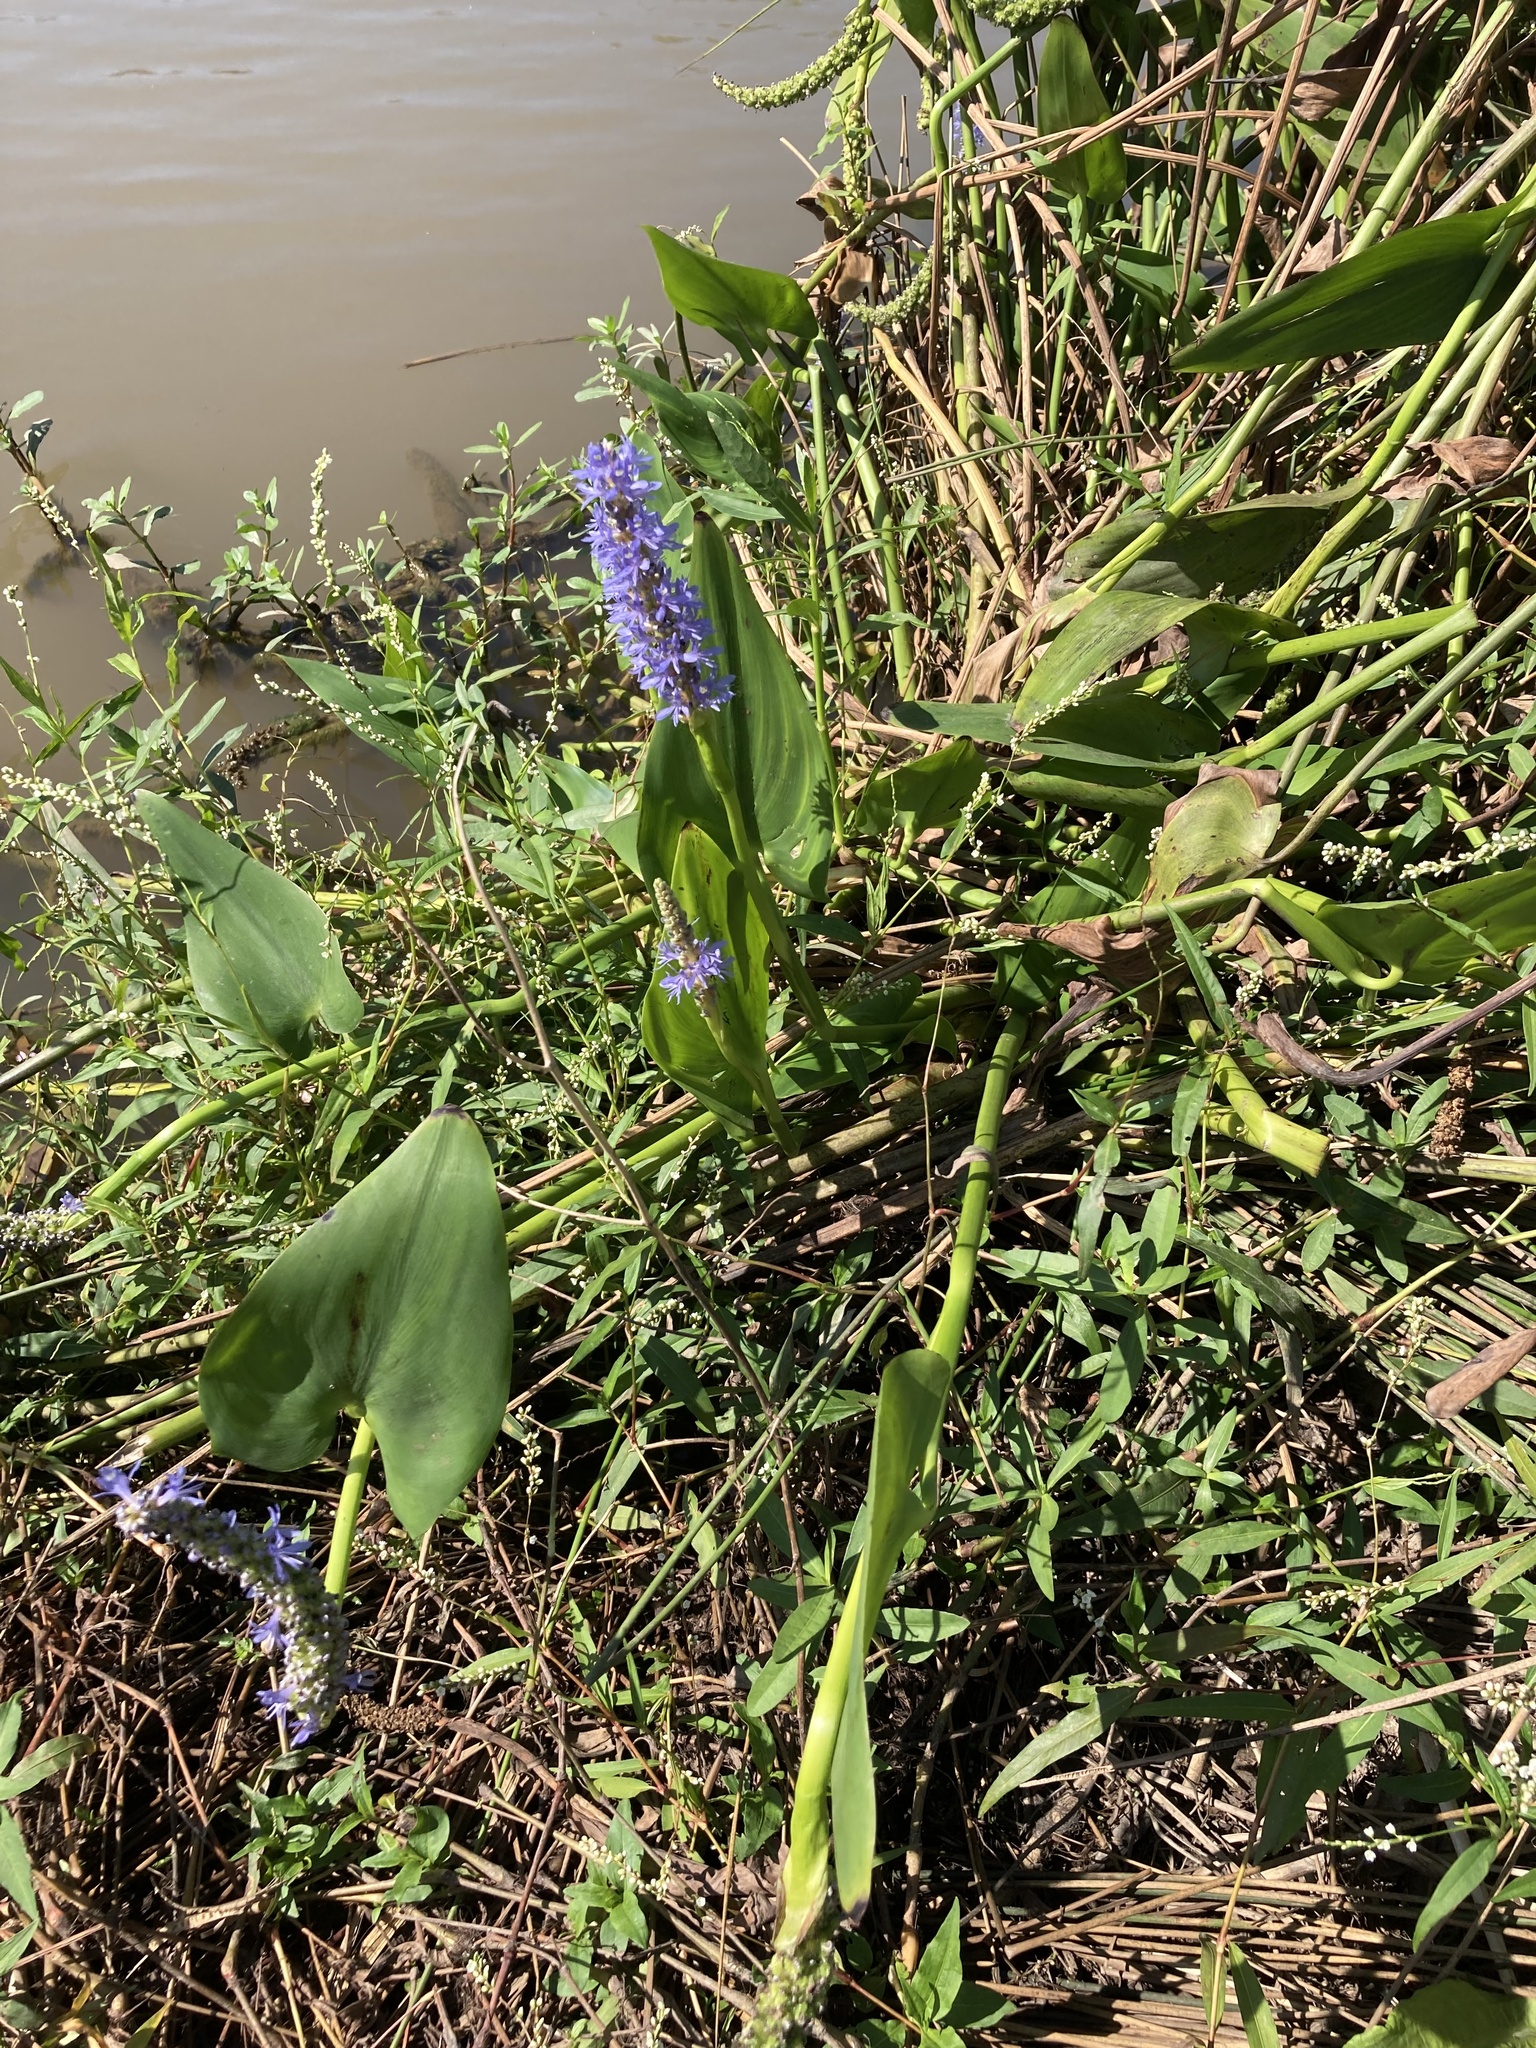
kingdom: Plantae
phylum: Tracheophyta
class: Liliopsida
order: Commelinales
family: Pontederiaceae
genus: Pontederia
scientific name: Pontederia cordata
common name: Pickerelweed
